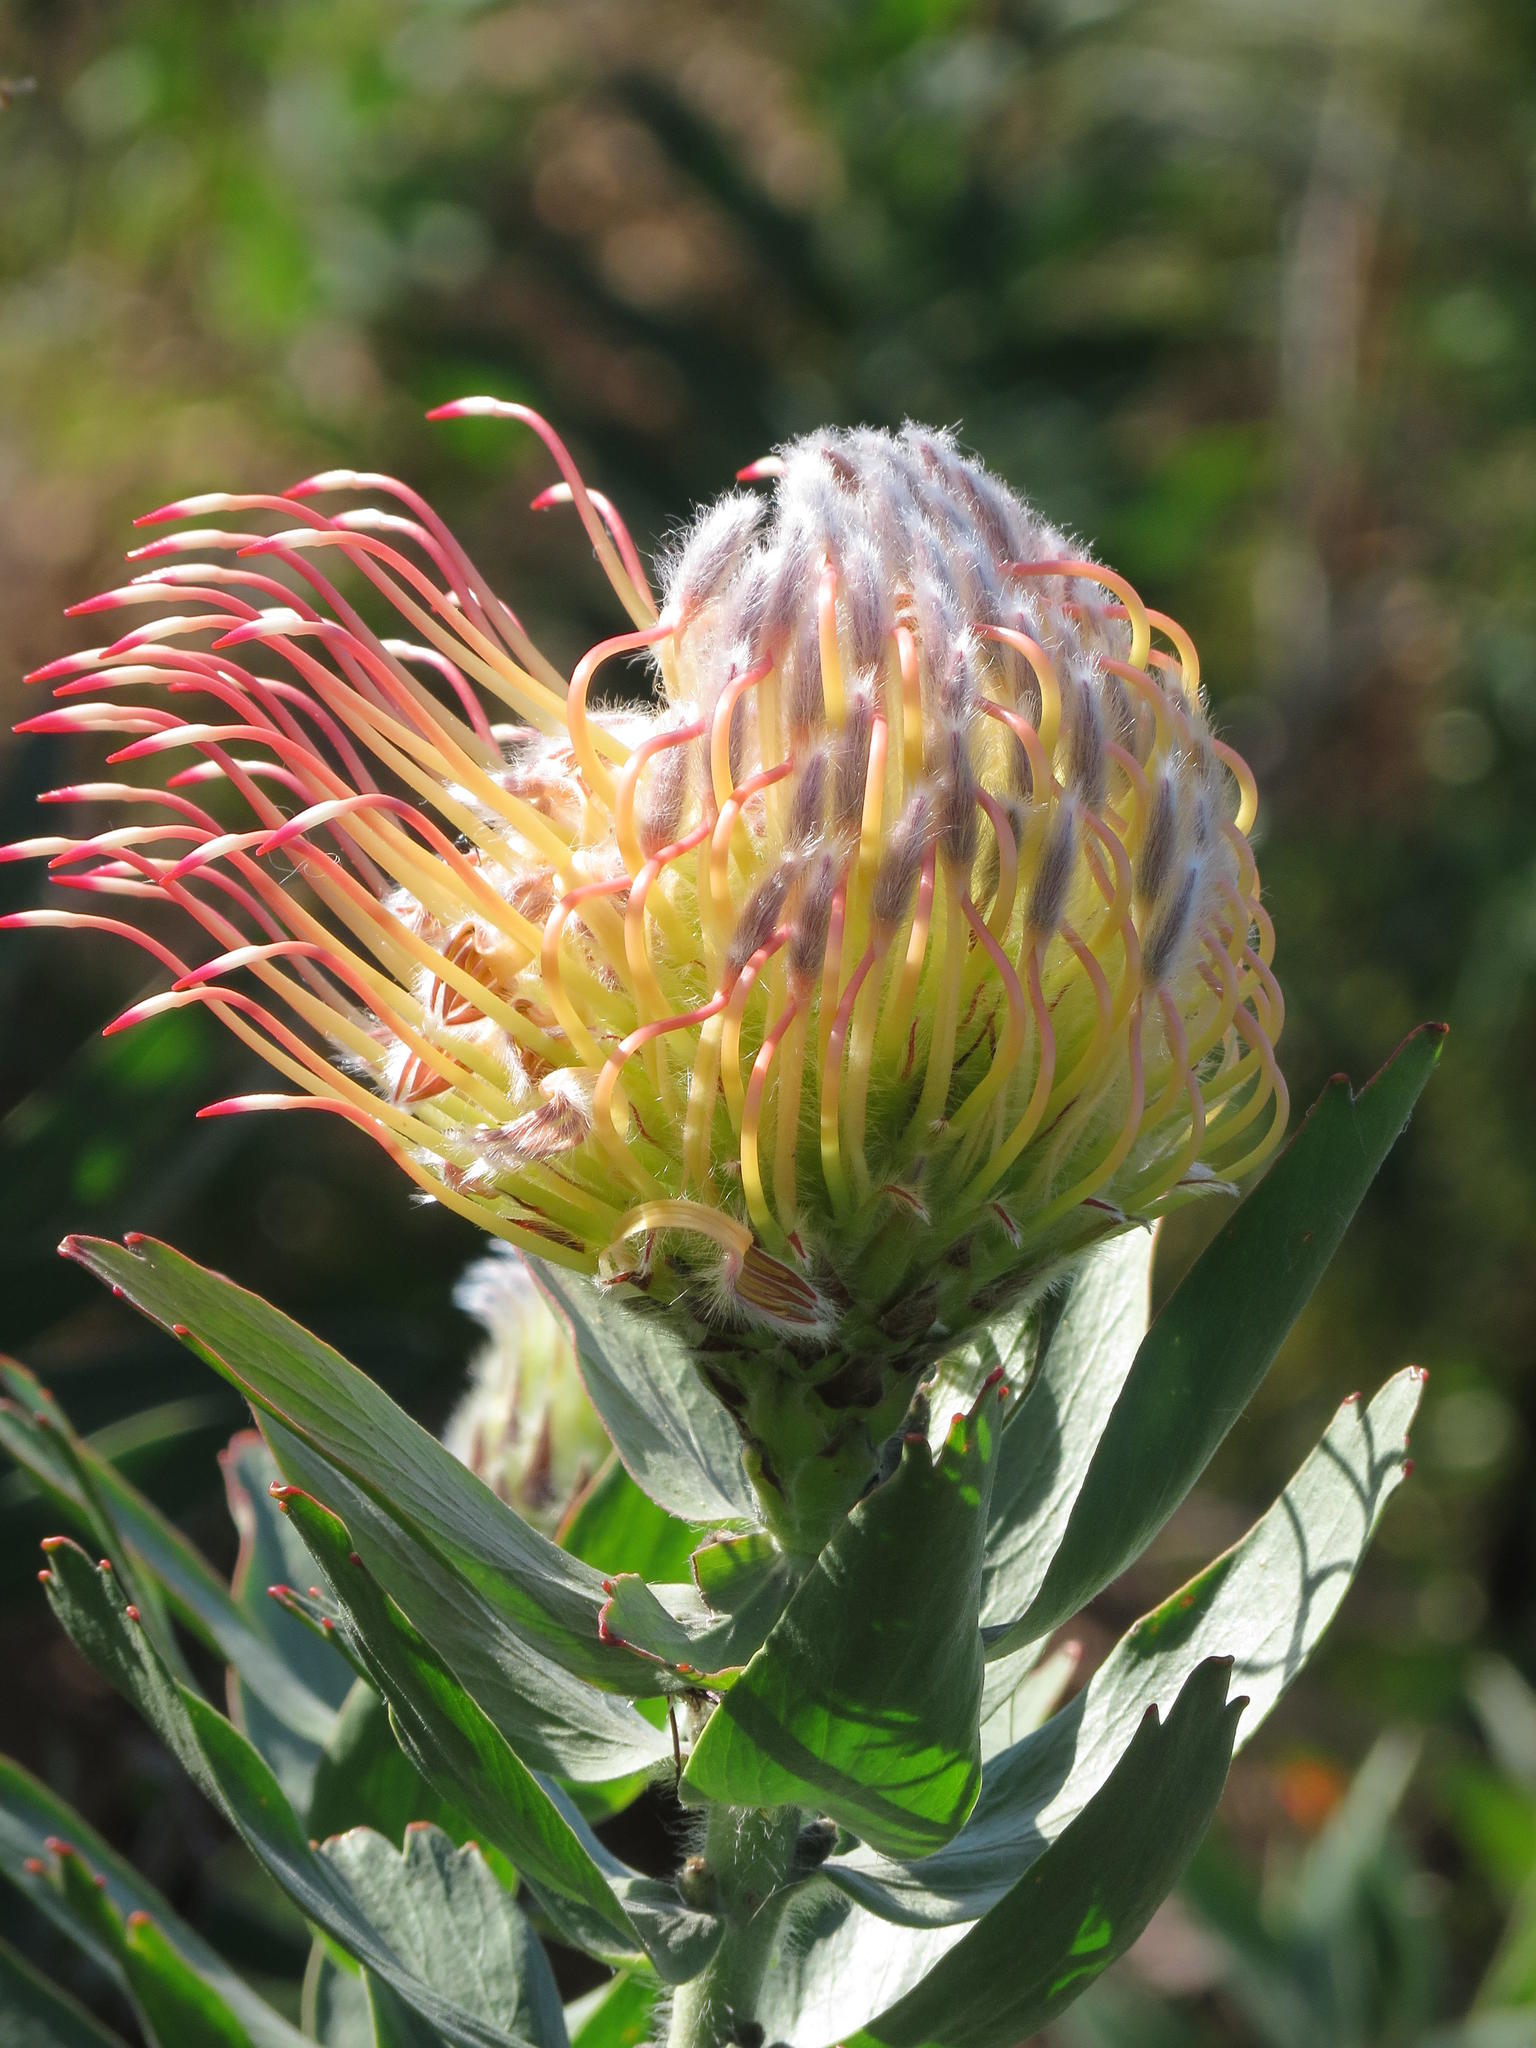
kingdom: Plantae
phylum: Tracheophyta
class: Magnoliopsida
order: Proteales
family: Proteaceae
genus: Leucospermum
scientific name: Leucospermum gueinzii
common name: Kloof fountain pincushion
